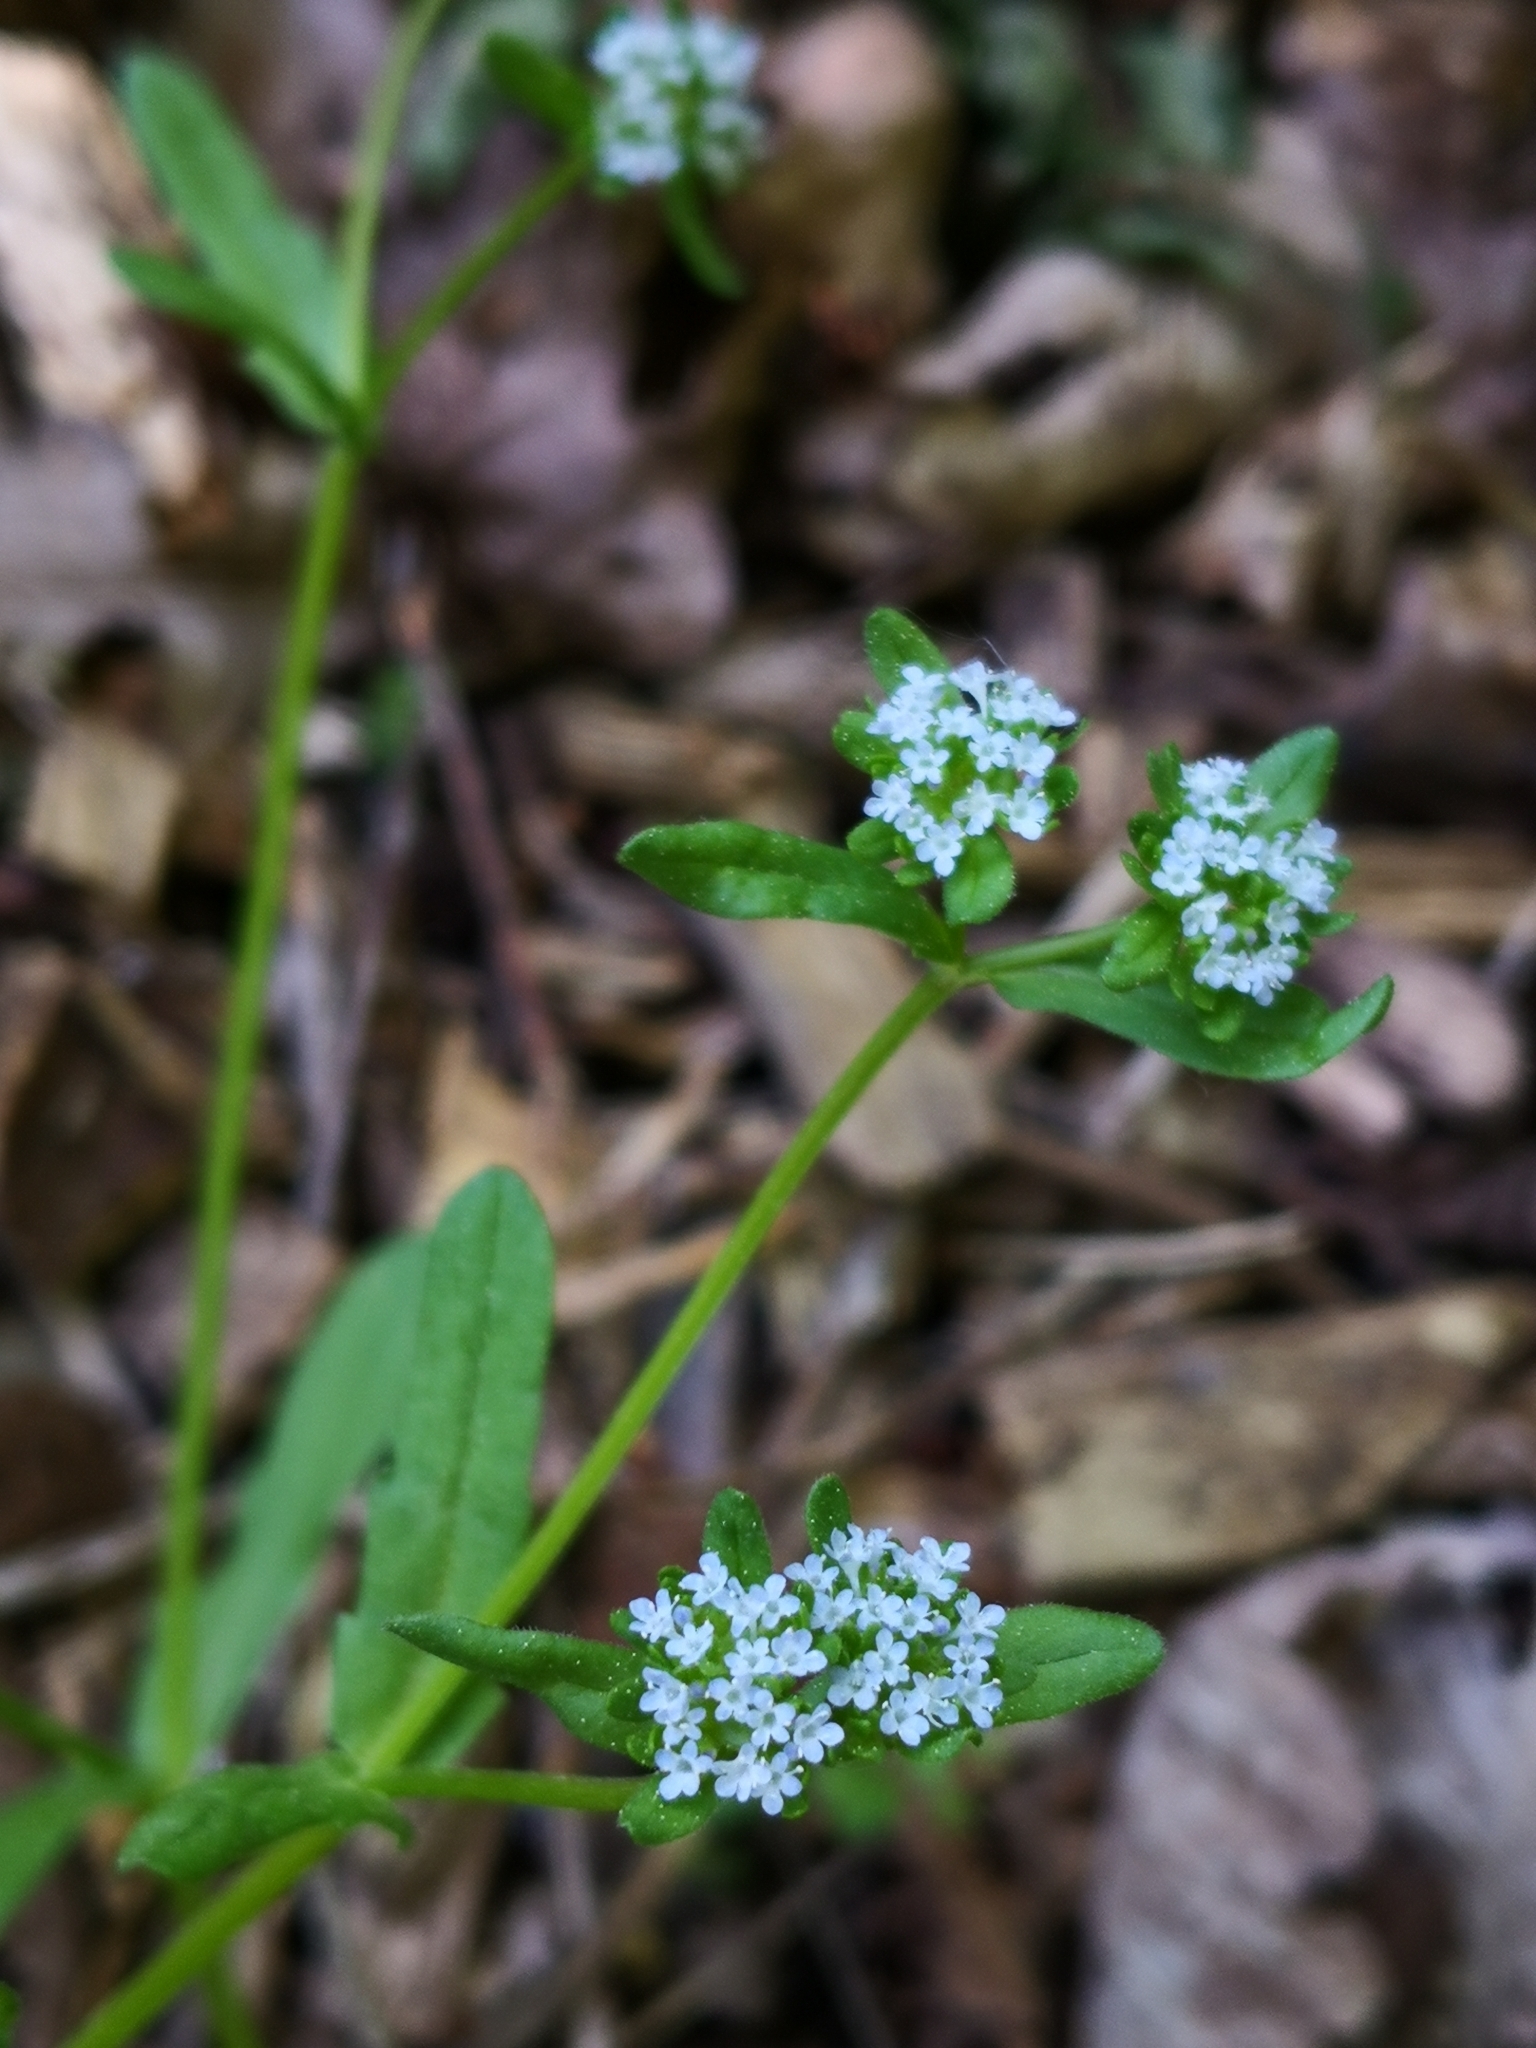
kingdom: Plantae
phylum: Tracheophyta
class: Magnoliopsida
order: Dipsacales
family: Caprifoliaceae
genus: Valerianella
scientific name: Valerianella
